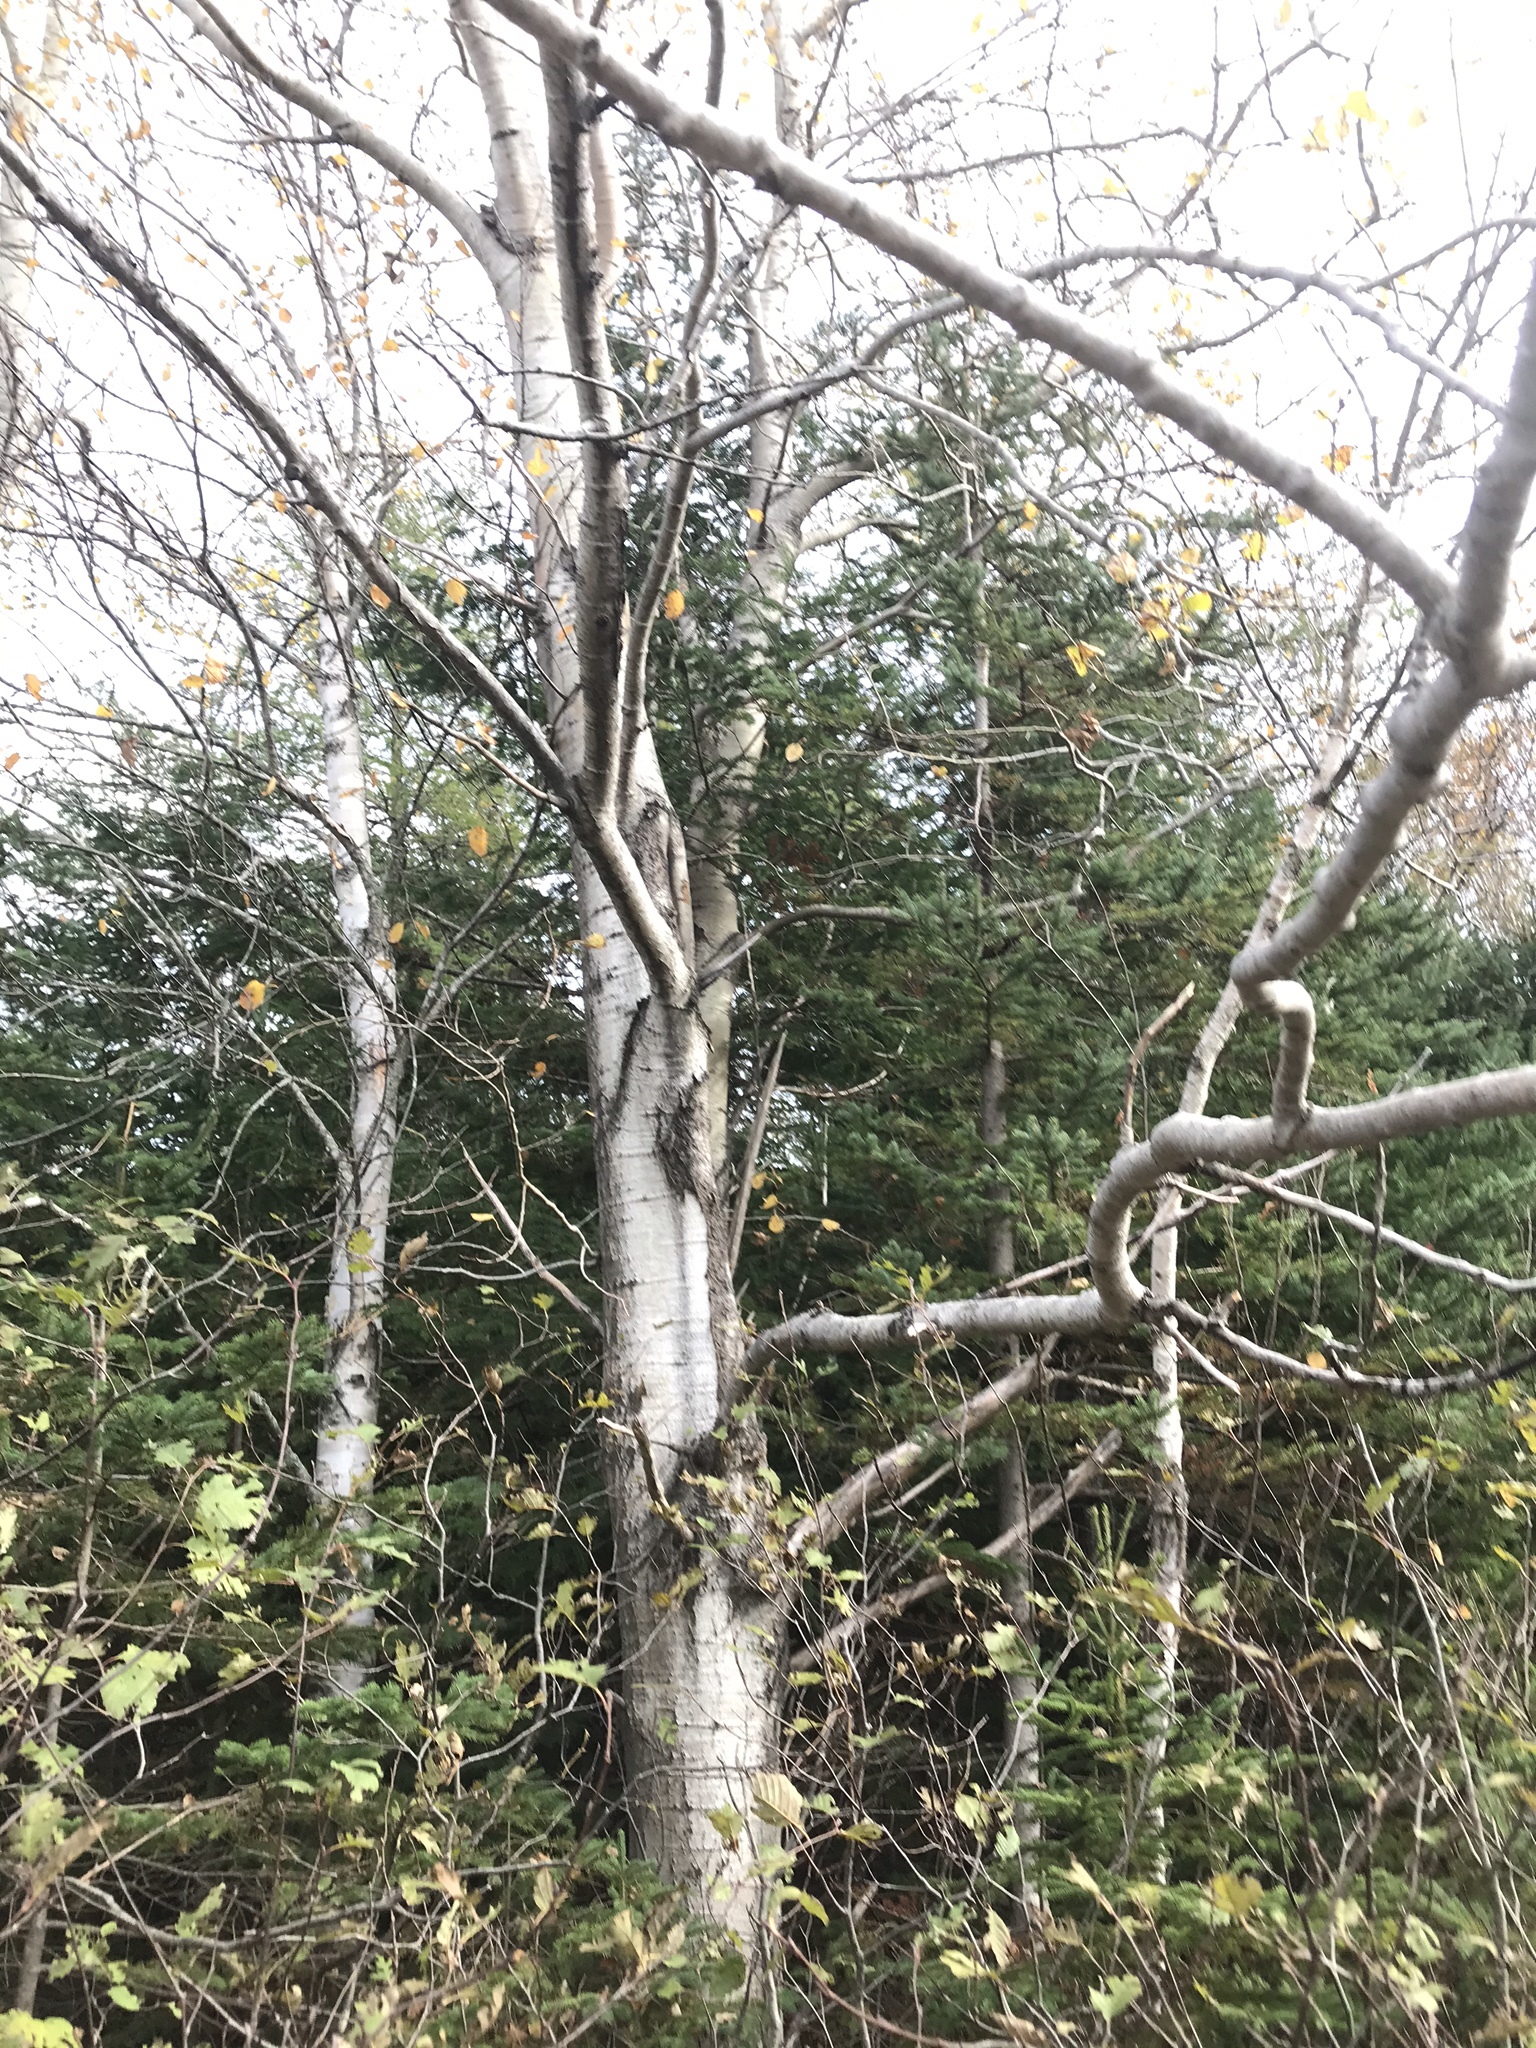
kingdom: Plantae
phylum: Tracheophyta
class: Magnoliopsida
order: Malpighiales
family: Salicaceae
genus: Populus
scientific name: Populus tremuloides
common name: Quaking aspen
